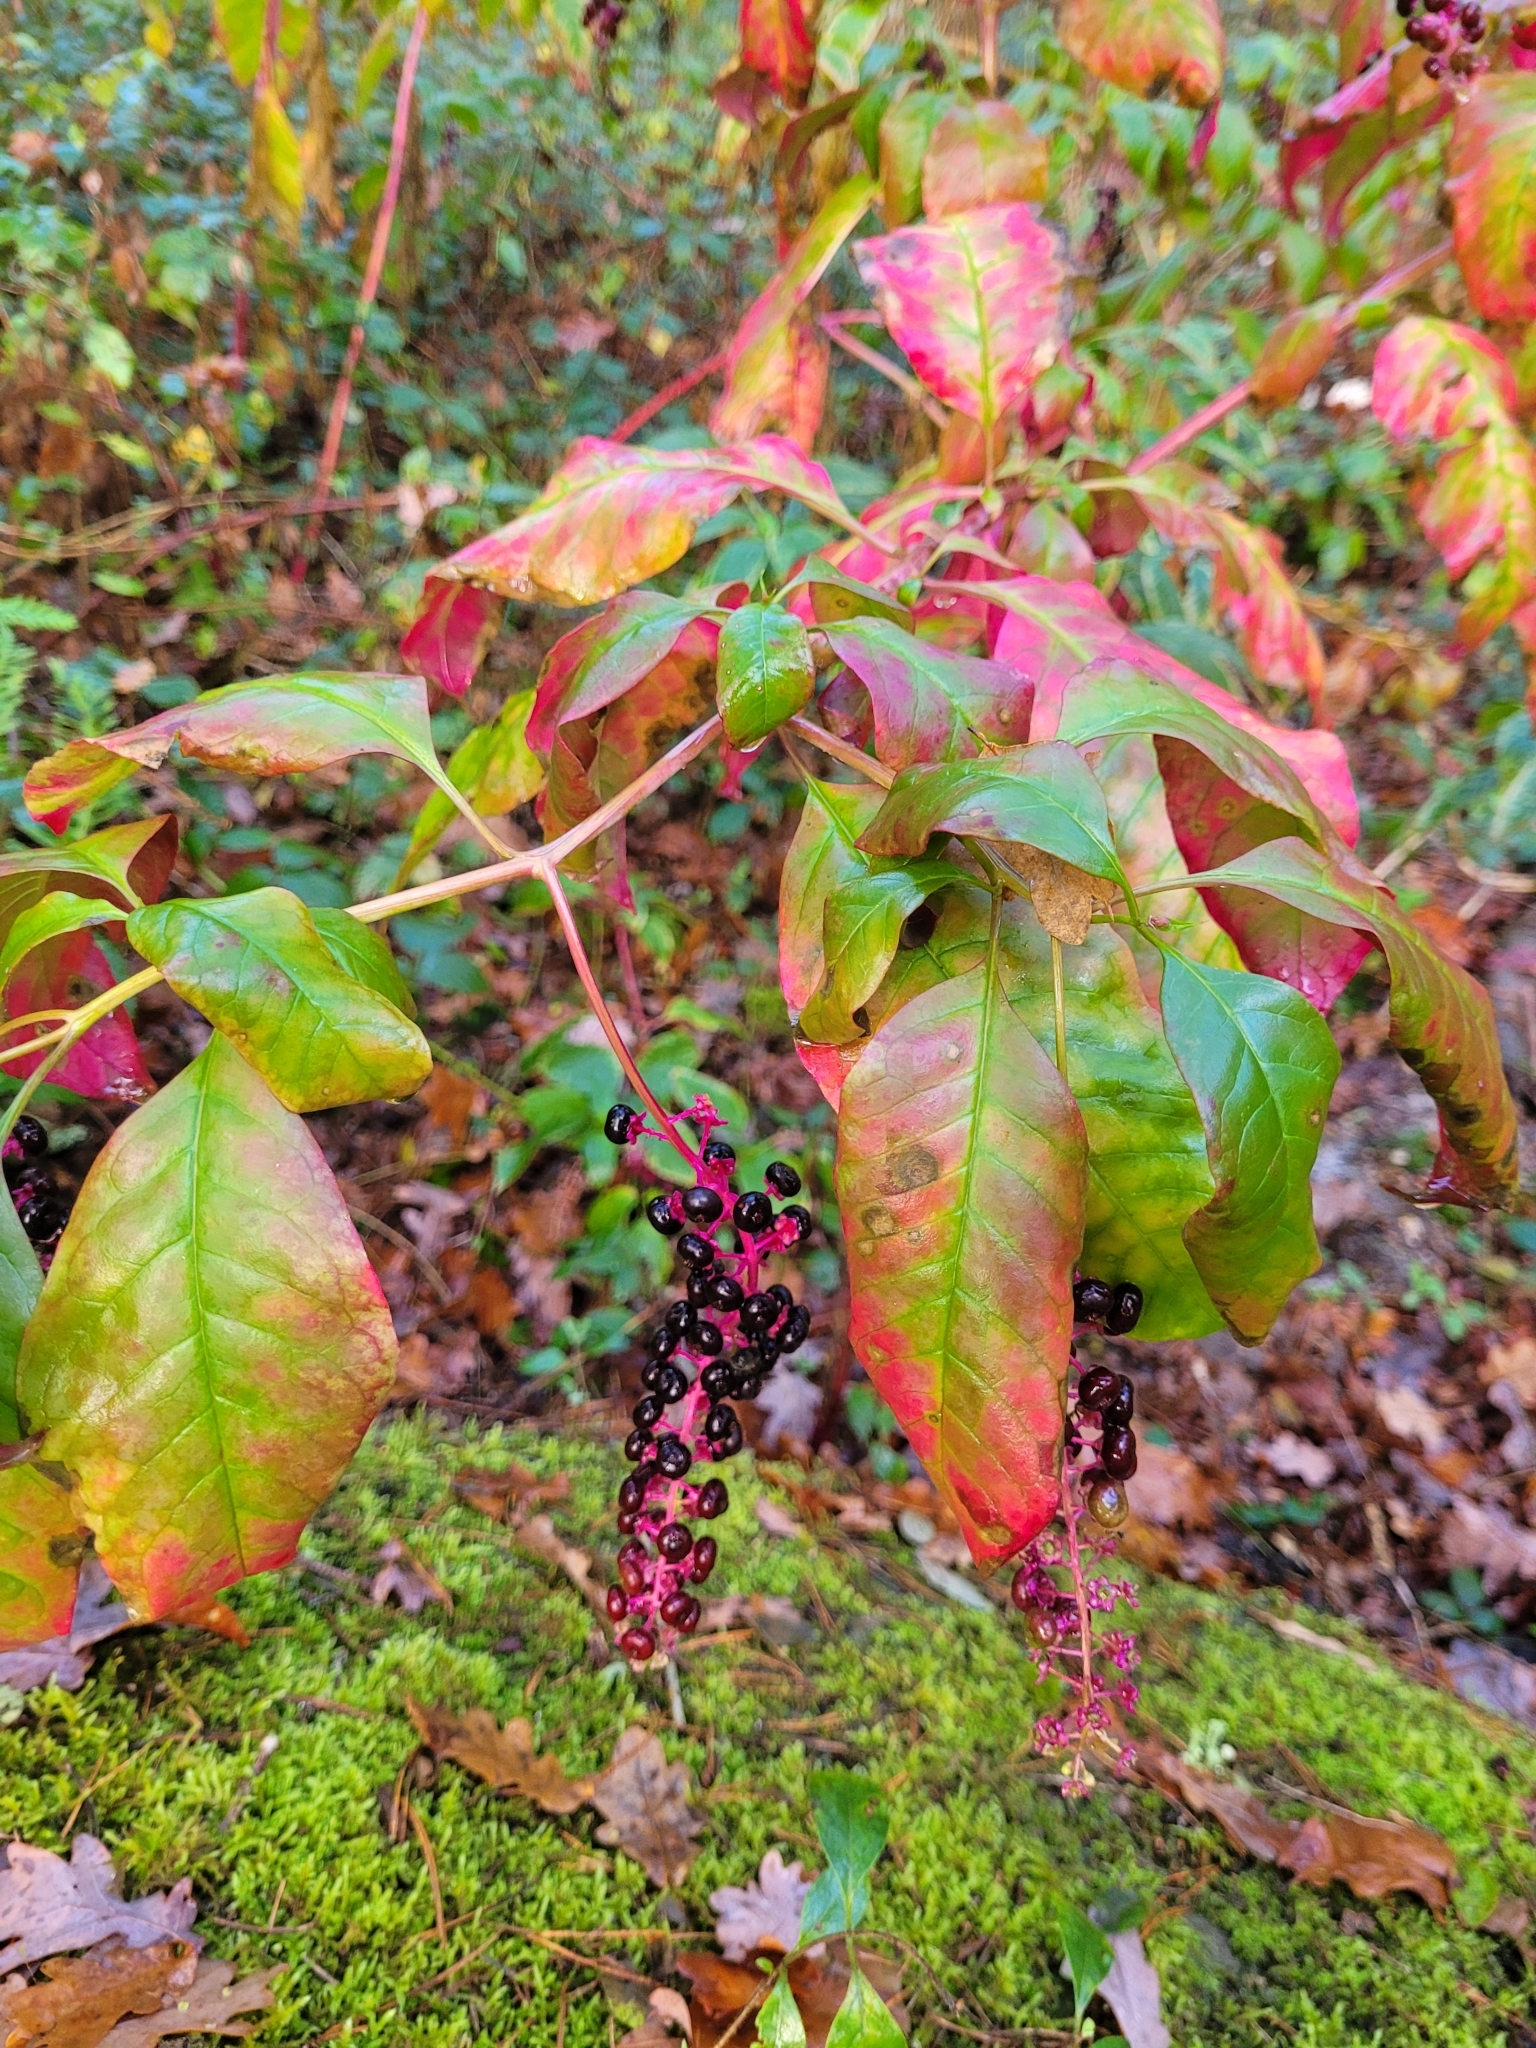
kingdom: Plantae
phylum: Tracheophyta
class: Magnoliopsida
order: Caryophyllales
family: Phytolaccaceae
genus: Phytolacca
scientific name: Phytolacca americana
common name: American pokeweed
